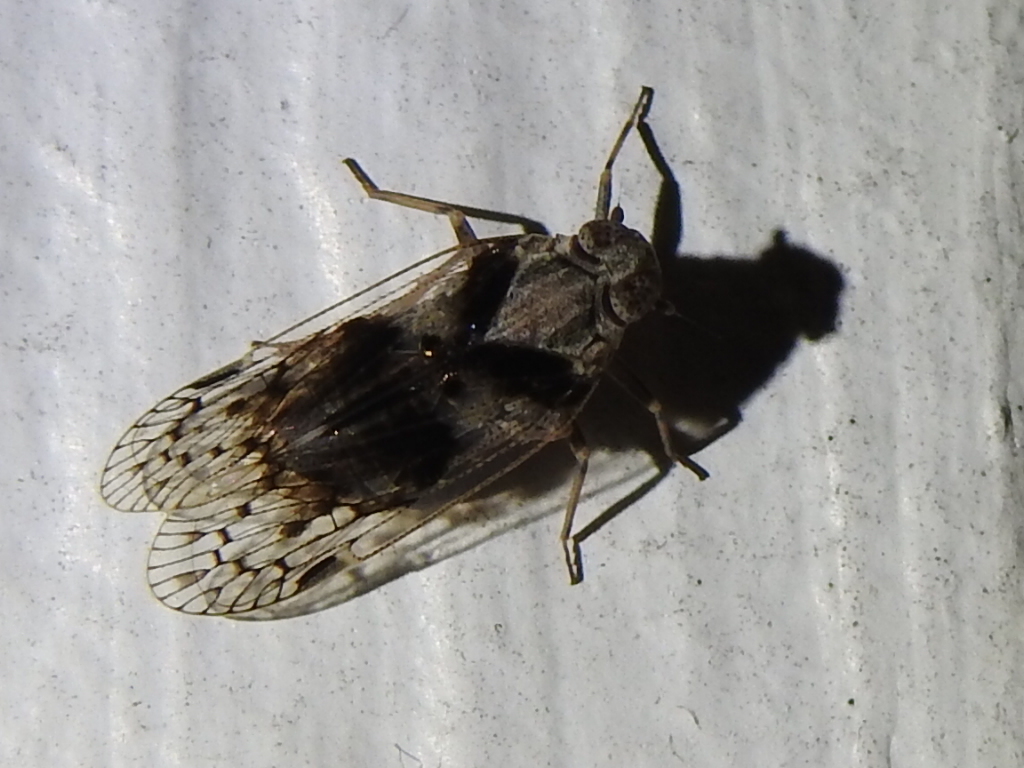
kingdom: Animalia
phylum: Arthropoda
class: Insecta
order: Hemiptera
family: Cixiidae
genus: Melanoliarus
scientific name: Melanoliarus aridus
